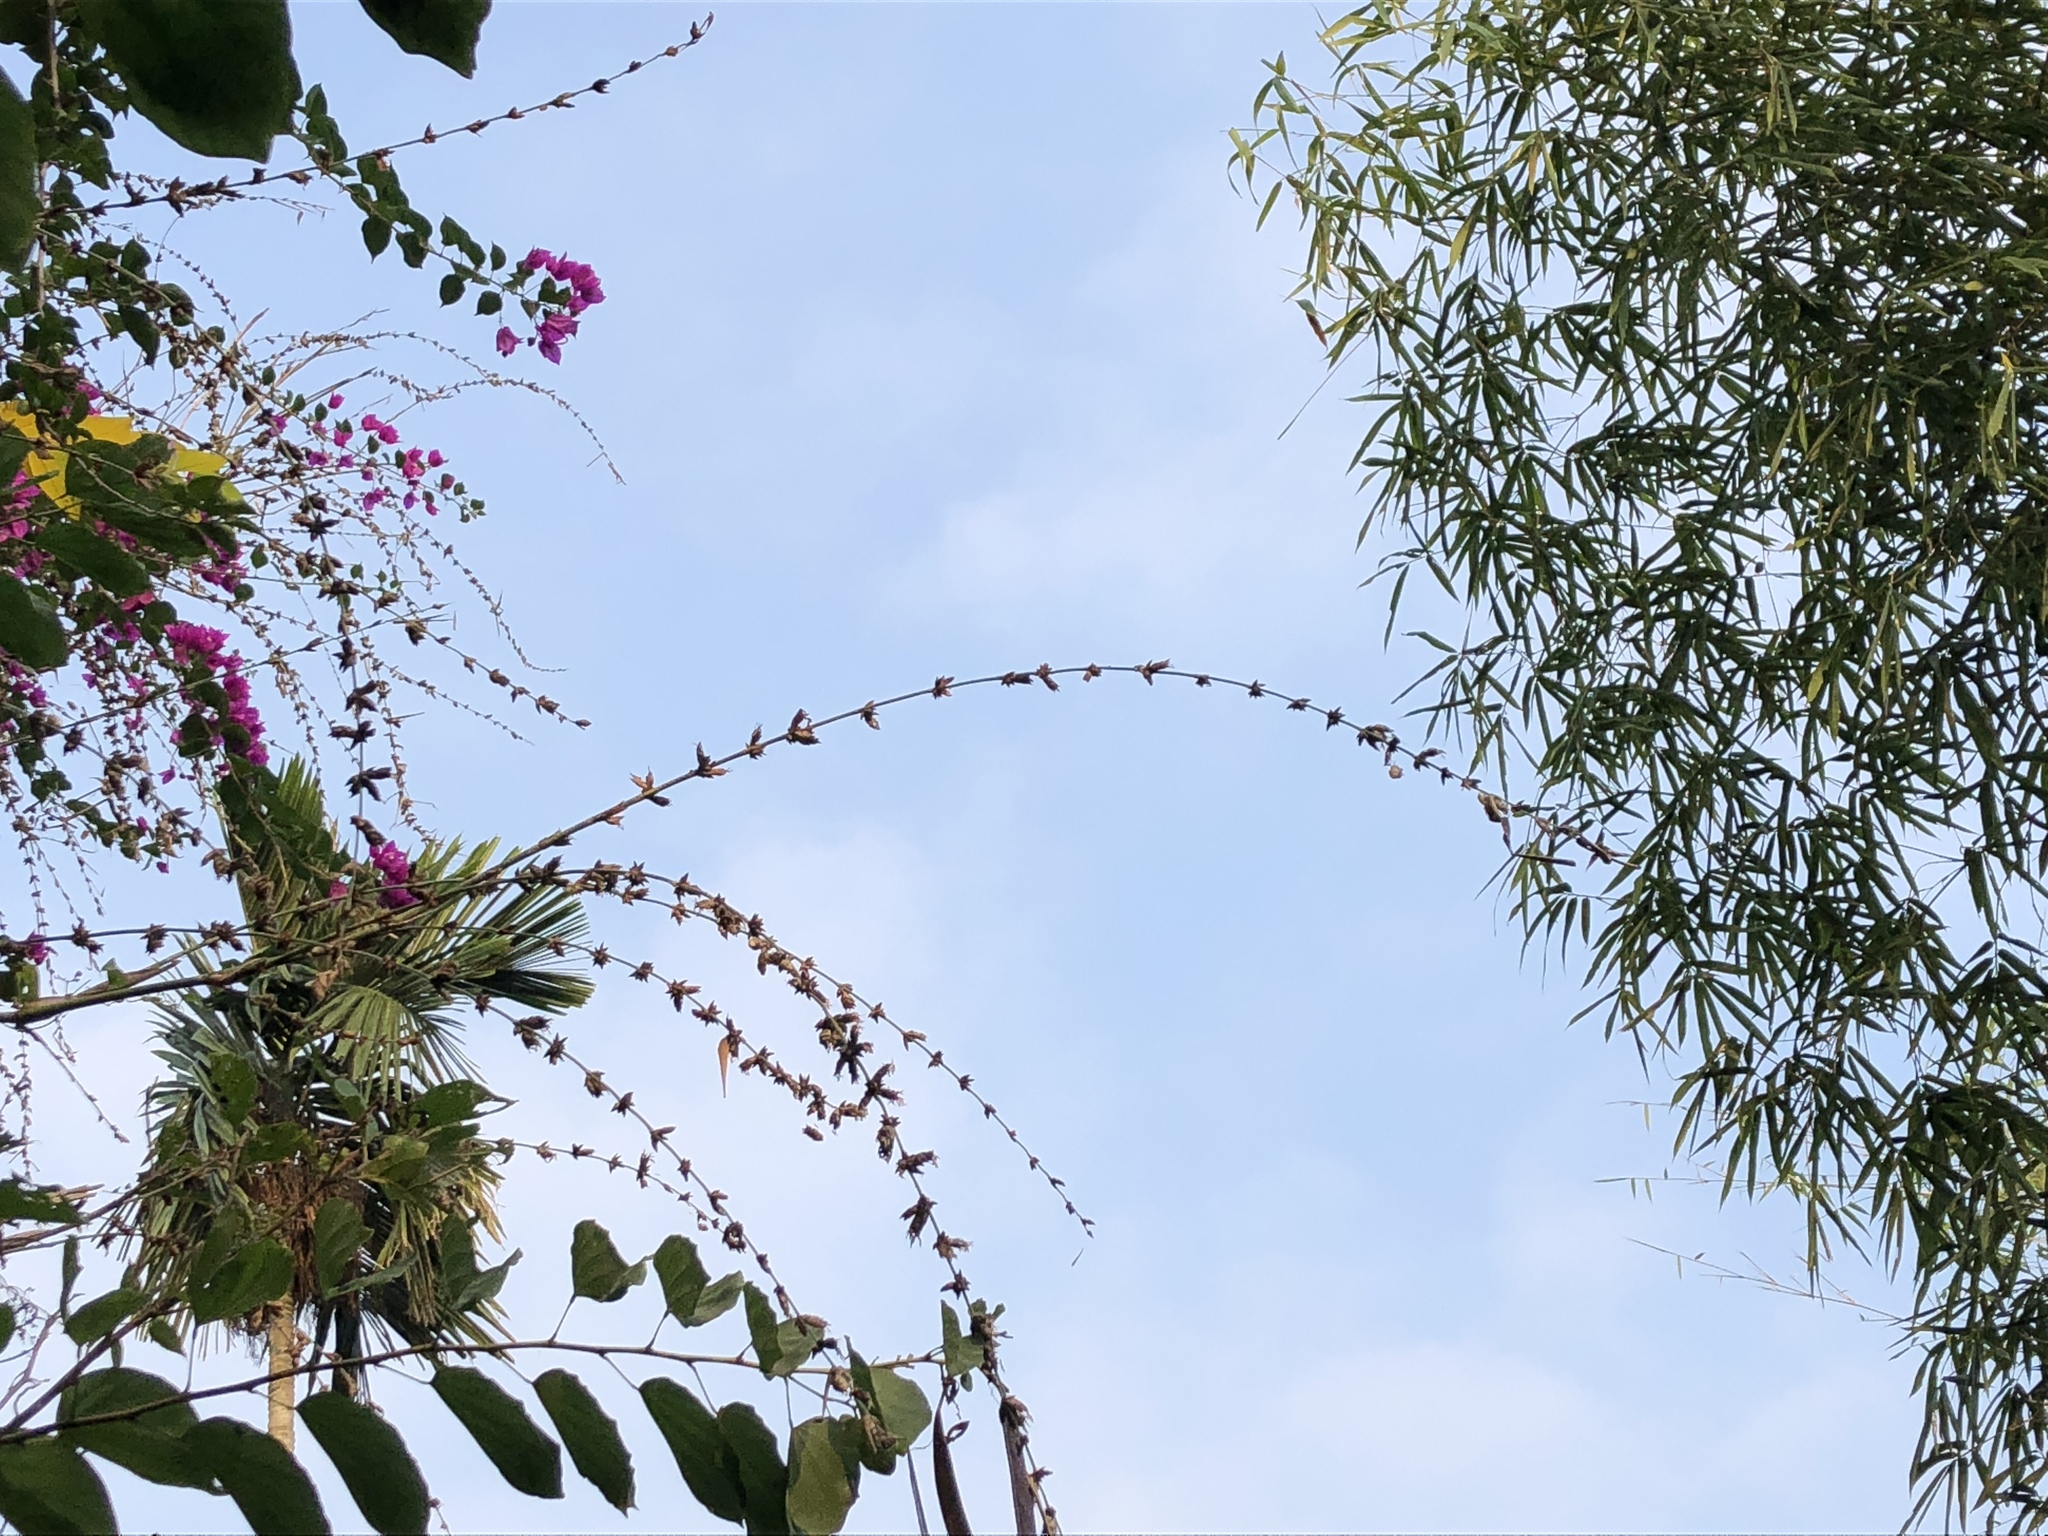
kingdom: Plantae
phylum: Tracheophyta
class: Liliopsida
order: Poales
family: Poaceae
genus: Bambusa
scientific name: Bambusa spinosa
